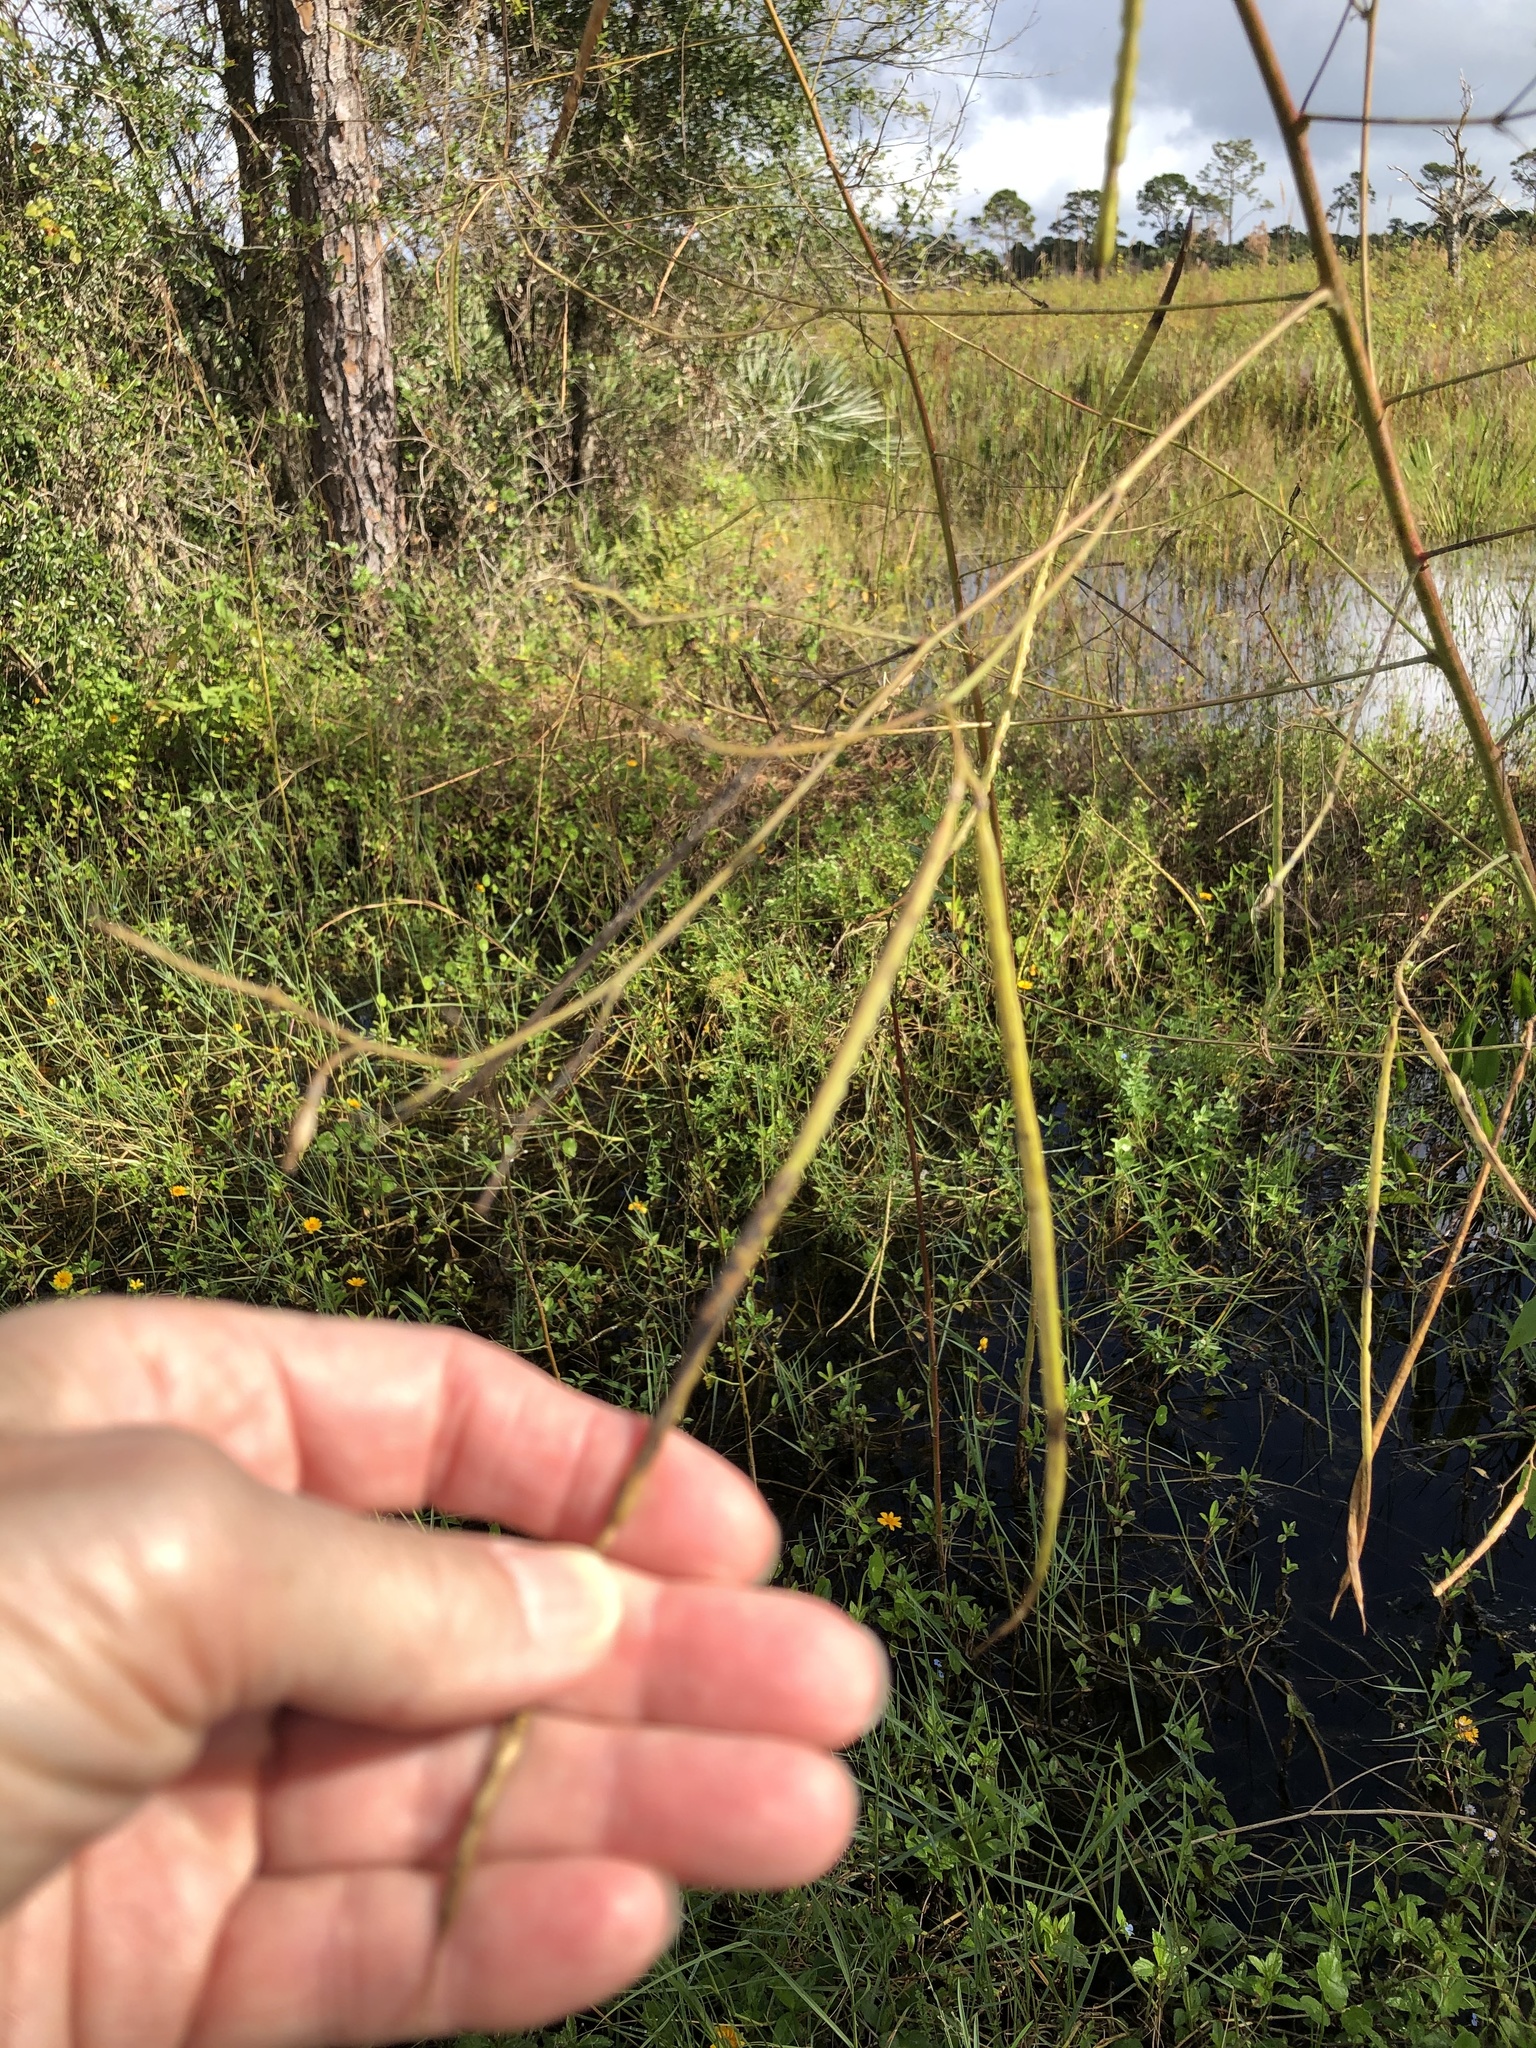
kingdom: Plantae
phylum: Tracheophyta
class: Magnoliopsida
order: Fabales
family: Fabaceae
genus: Sesbania
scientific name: Sesbania herbacea
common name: Bigpod sesbania
